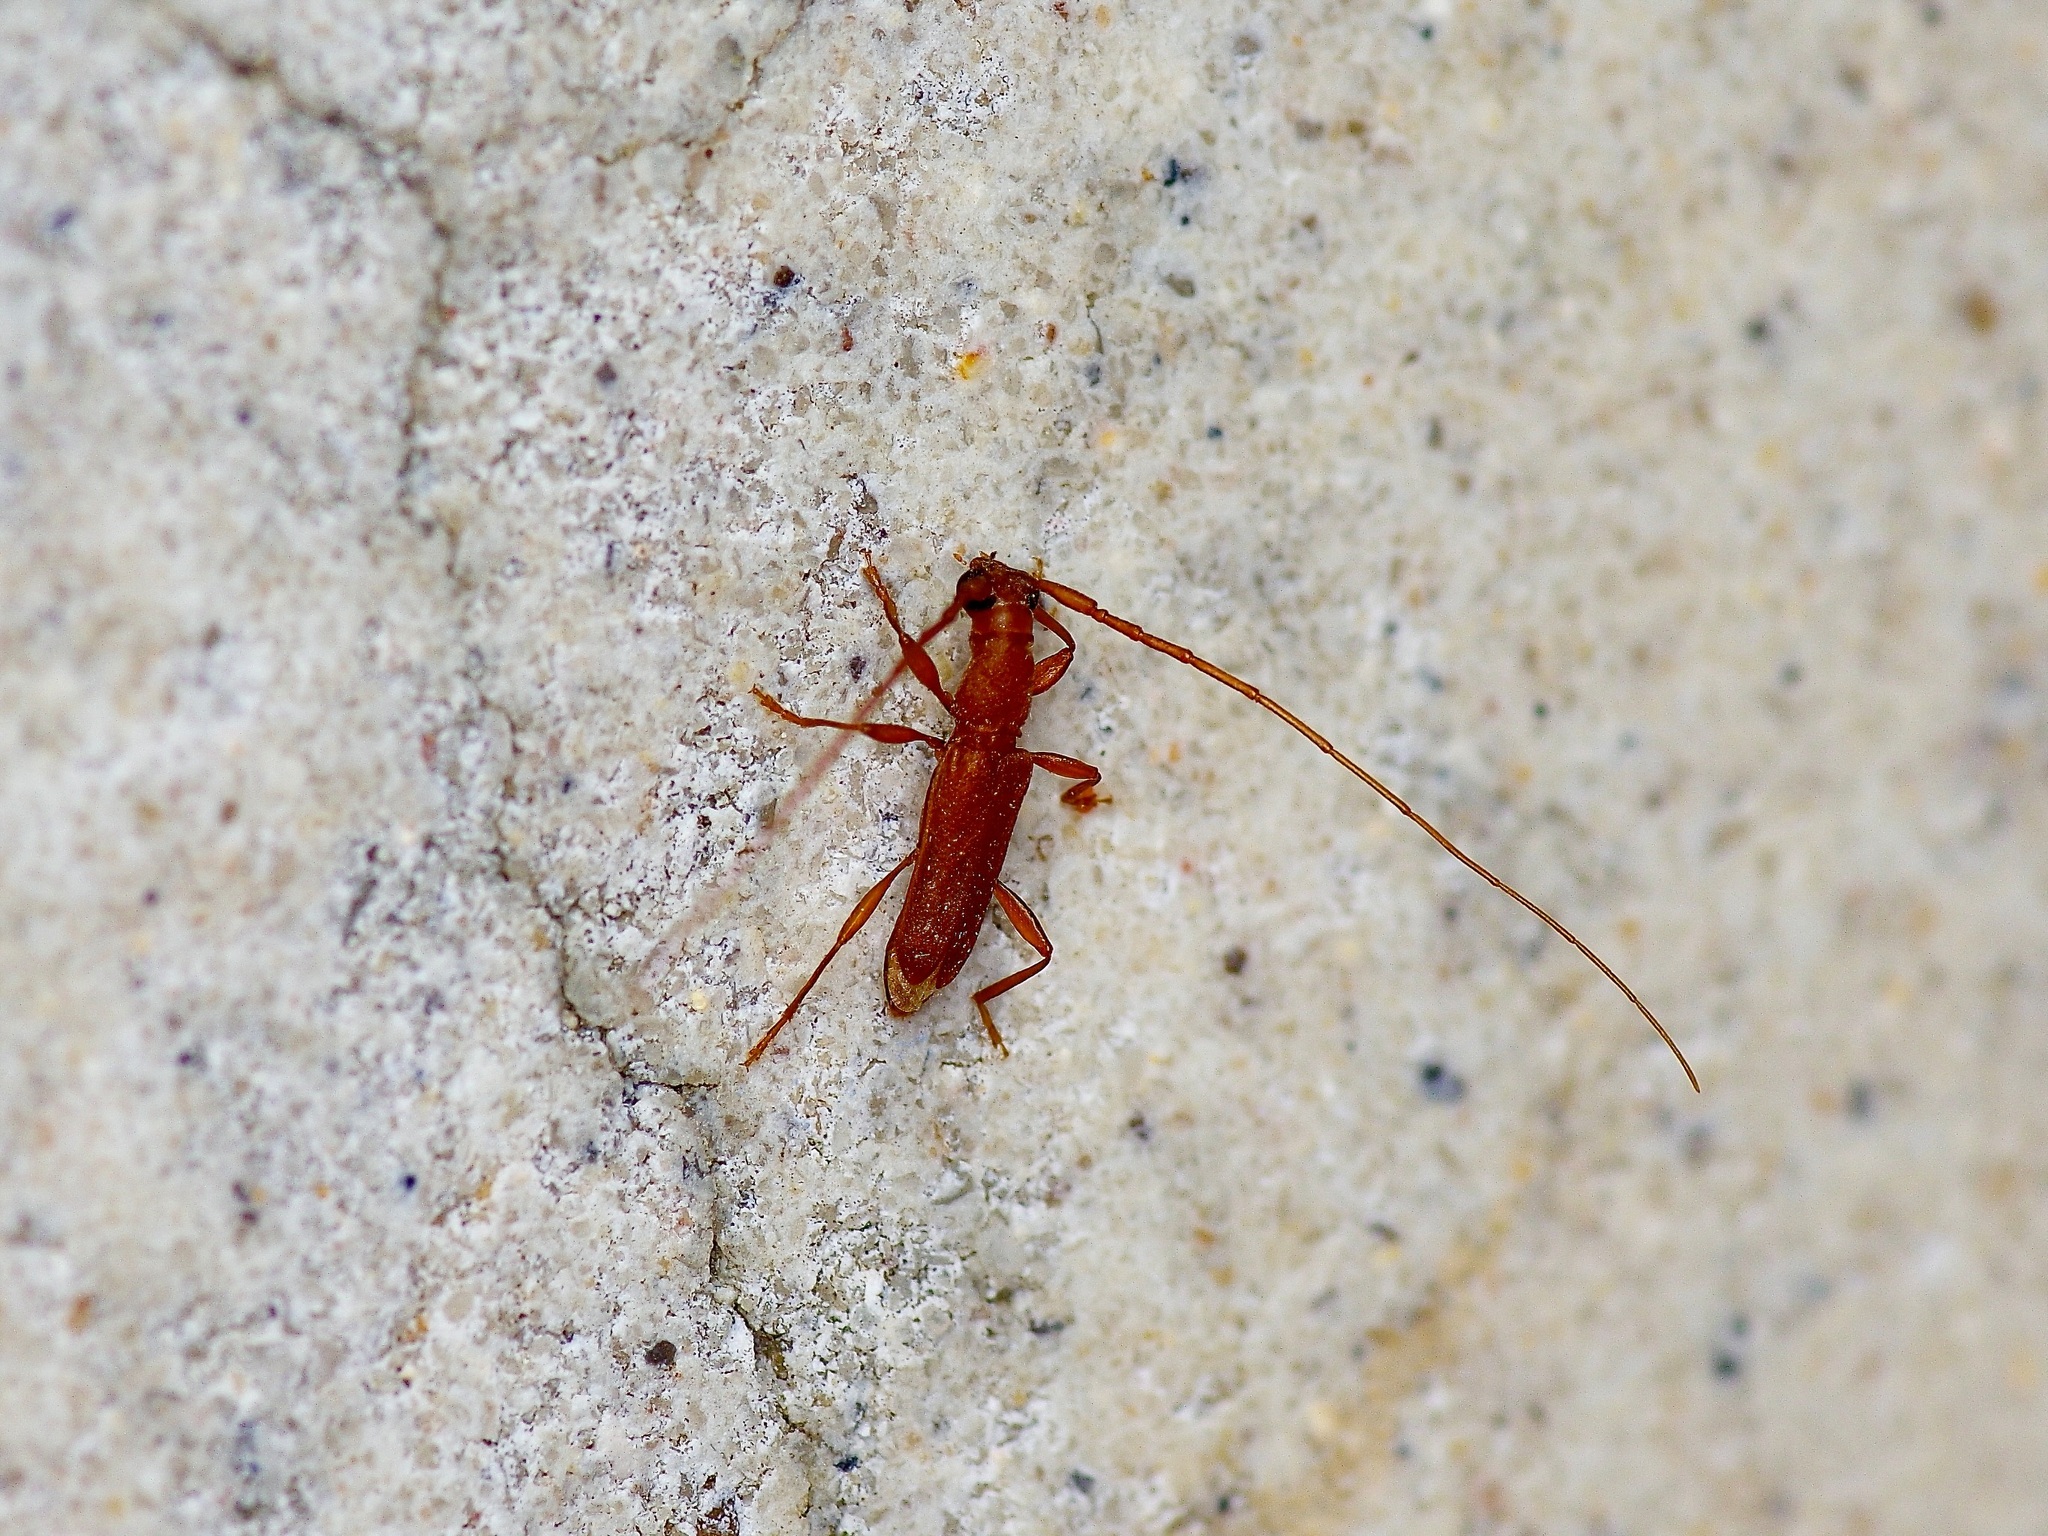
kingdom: Animalia
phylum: Arthropoda
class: Insecta
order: Coleoptera
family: Cerambycidae
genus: Hypexilis
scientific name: Hypexilis pallida
